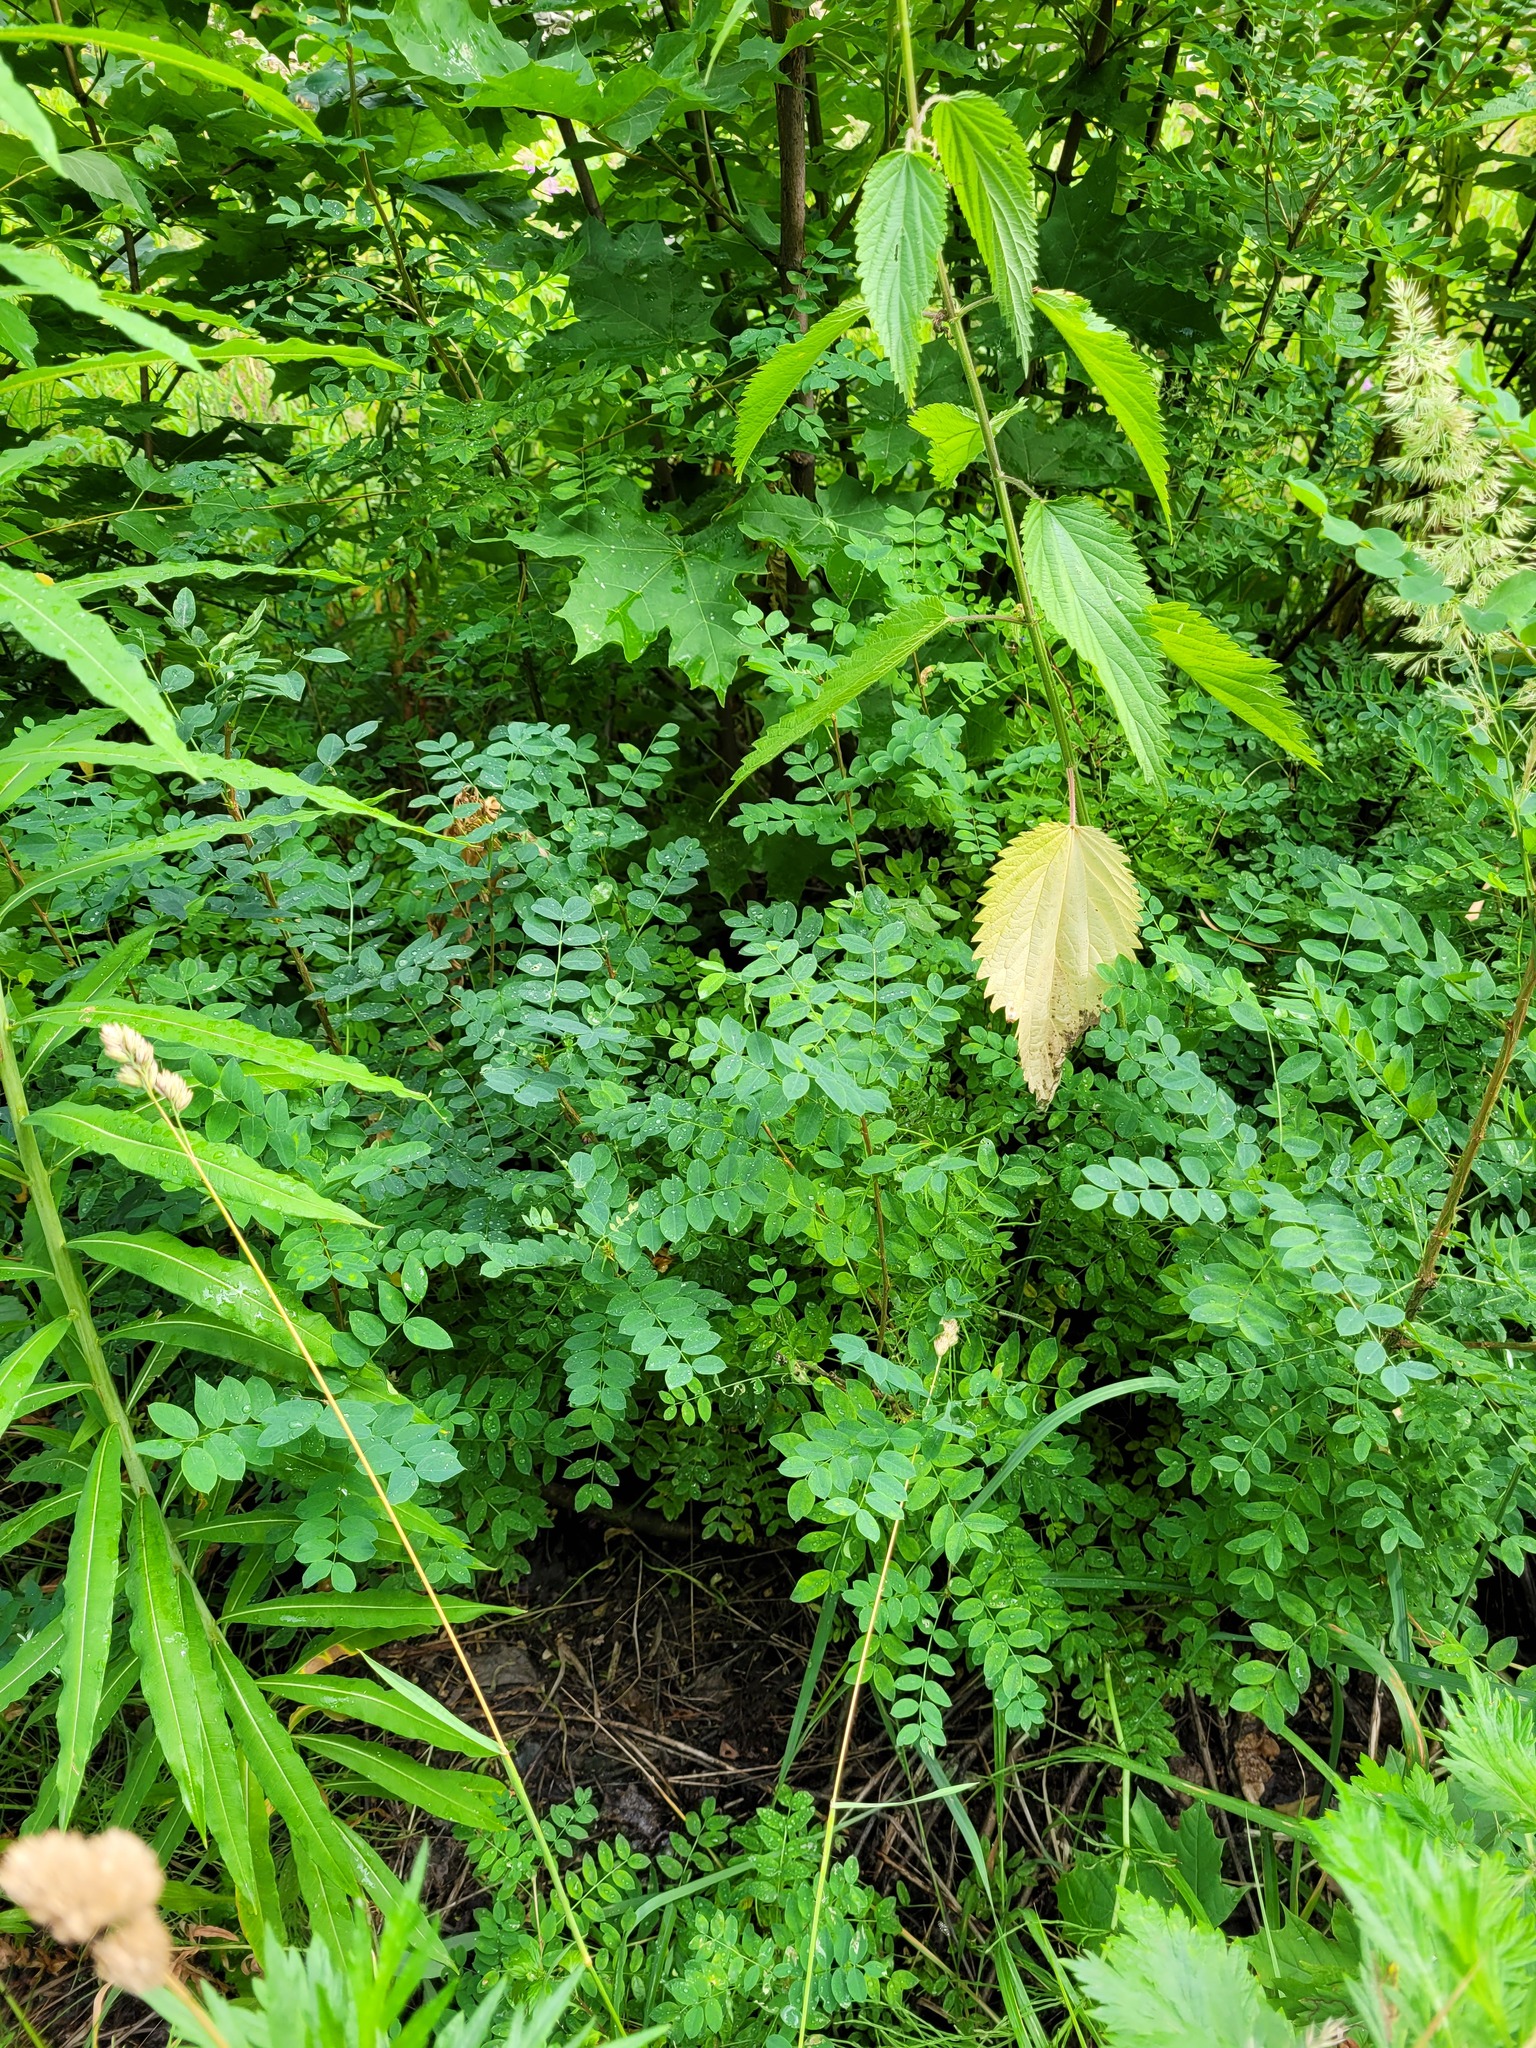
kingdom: Plantae
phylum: Tracheophyta
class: Magnoliopsida
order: Fabales
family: Fabaceae
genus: Caragana
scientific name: Caragana arborescens
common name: Siberian peashrub
